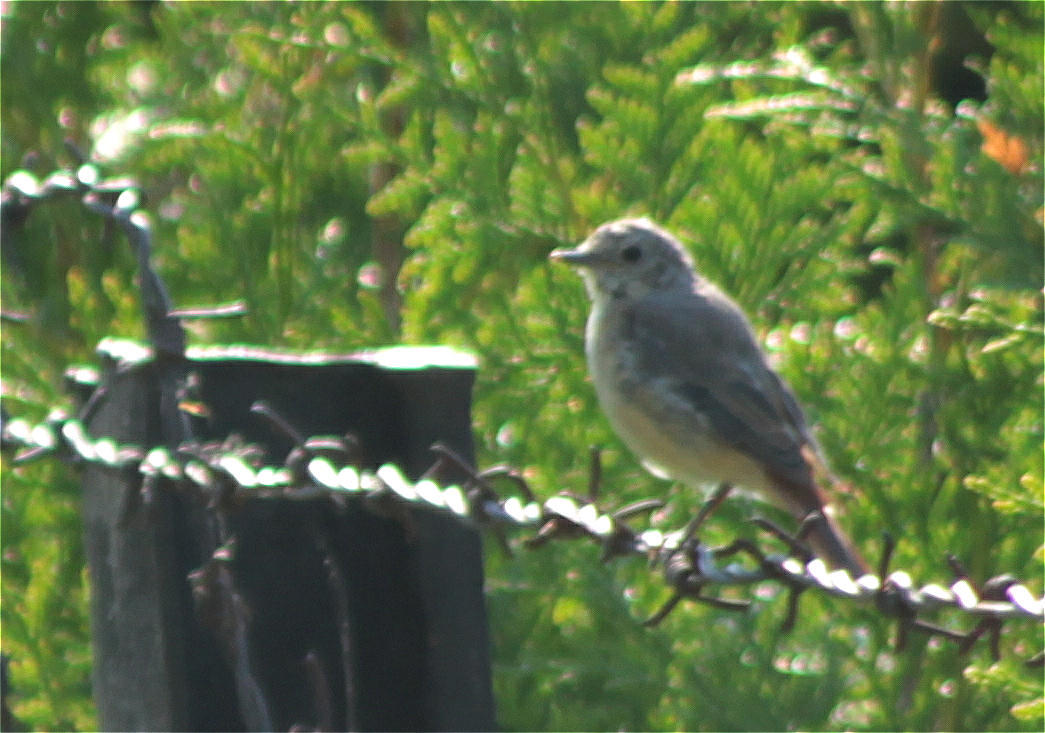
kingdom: Animalia
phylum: Chordata
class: Aves
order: Passeriformes
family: Muscicapidae
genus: Phoenicurus
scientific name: Phoenicurus ochruros
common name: Black redstart
